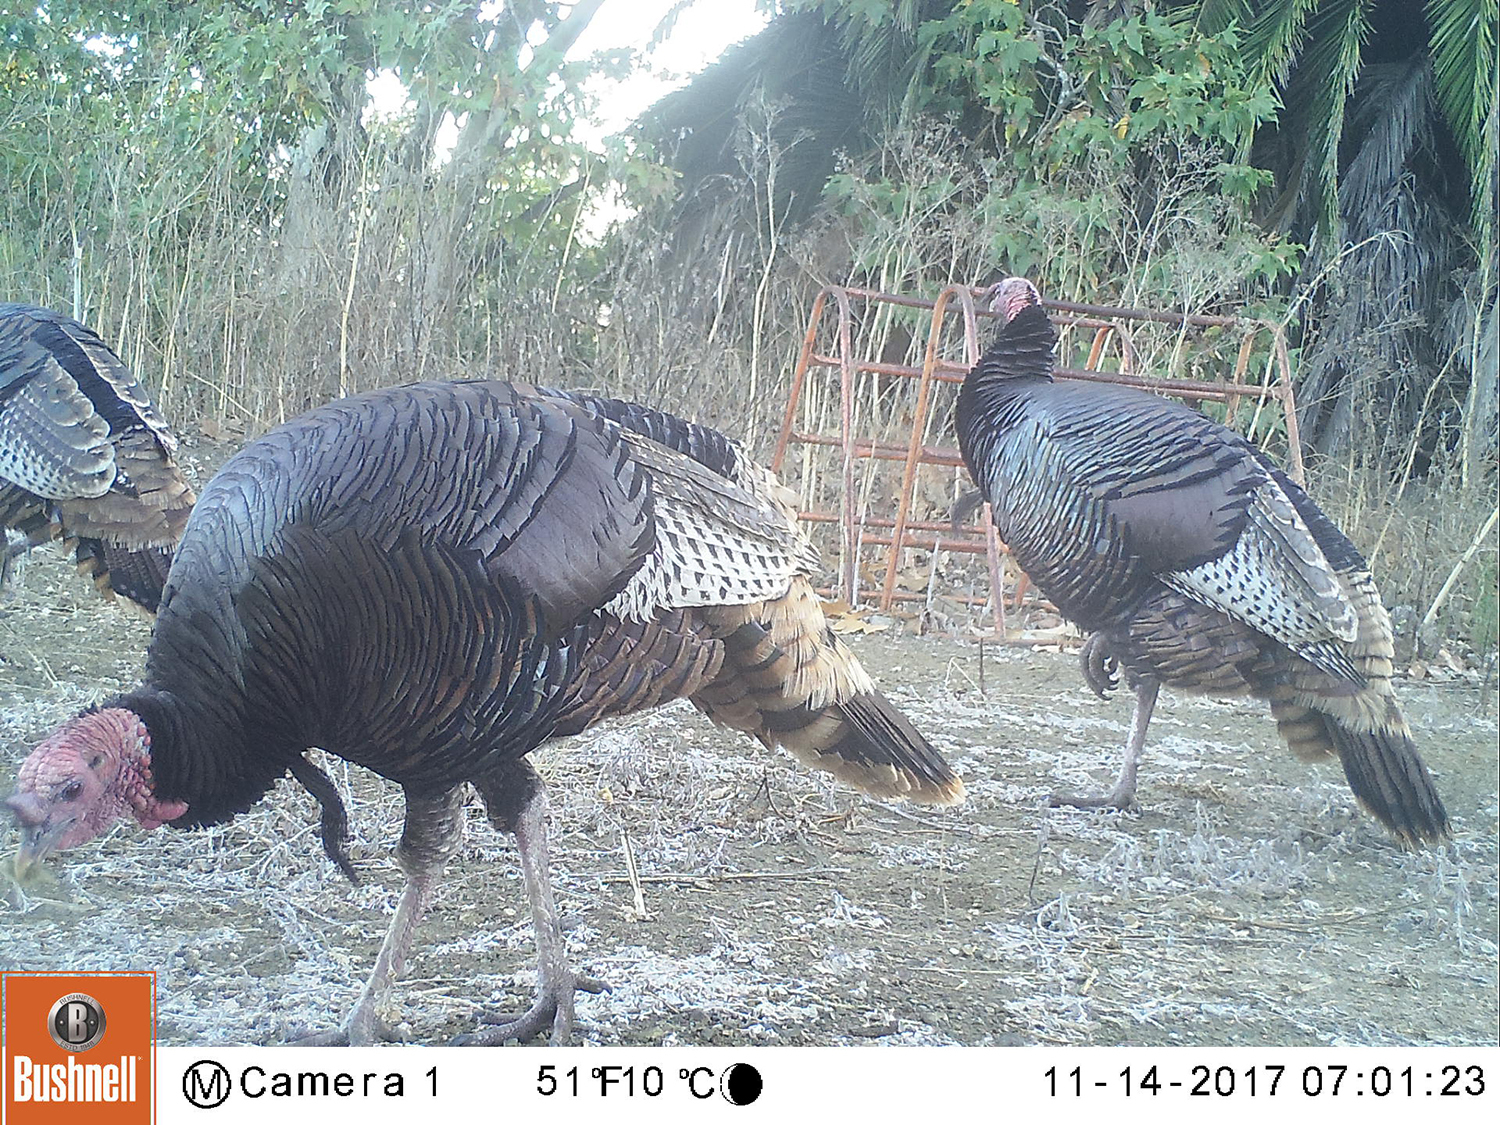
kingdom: Animalia
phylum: Chordata
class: Aves
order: Galliformes
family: Phasianidae
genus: Meleagris
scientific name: Meleagris gallopavo
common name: Wild turkey
